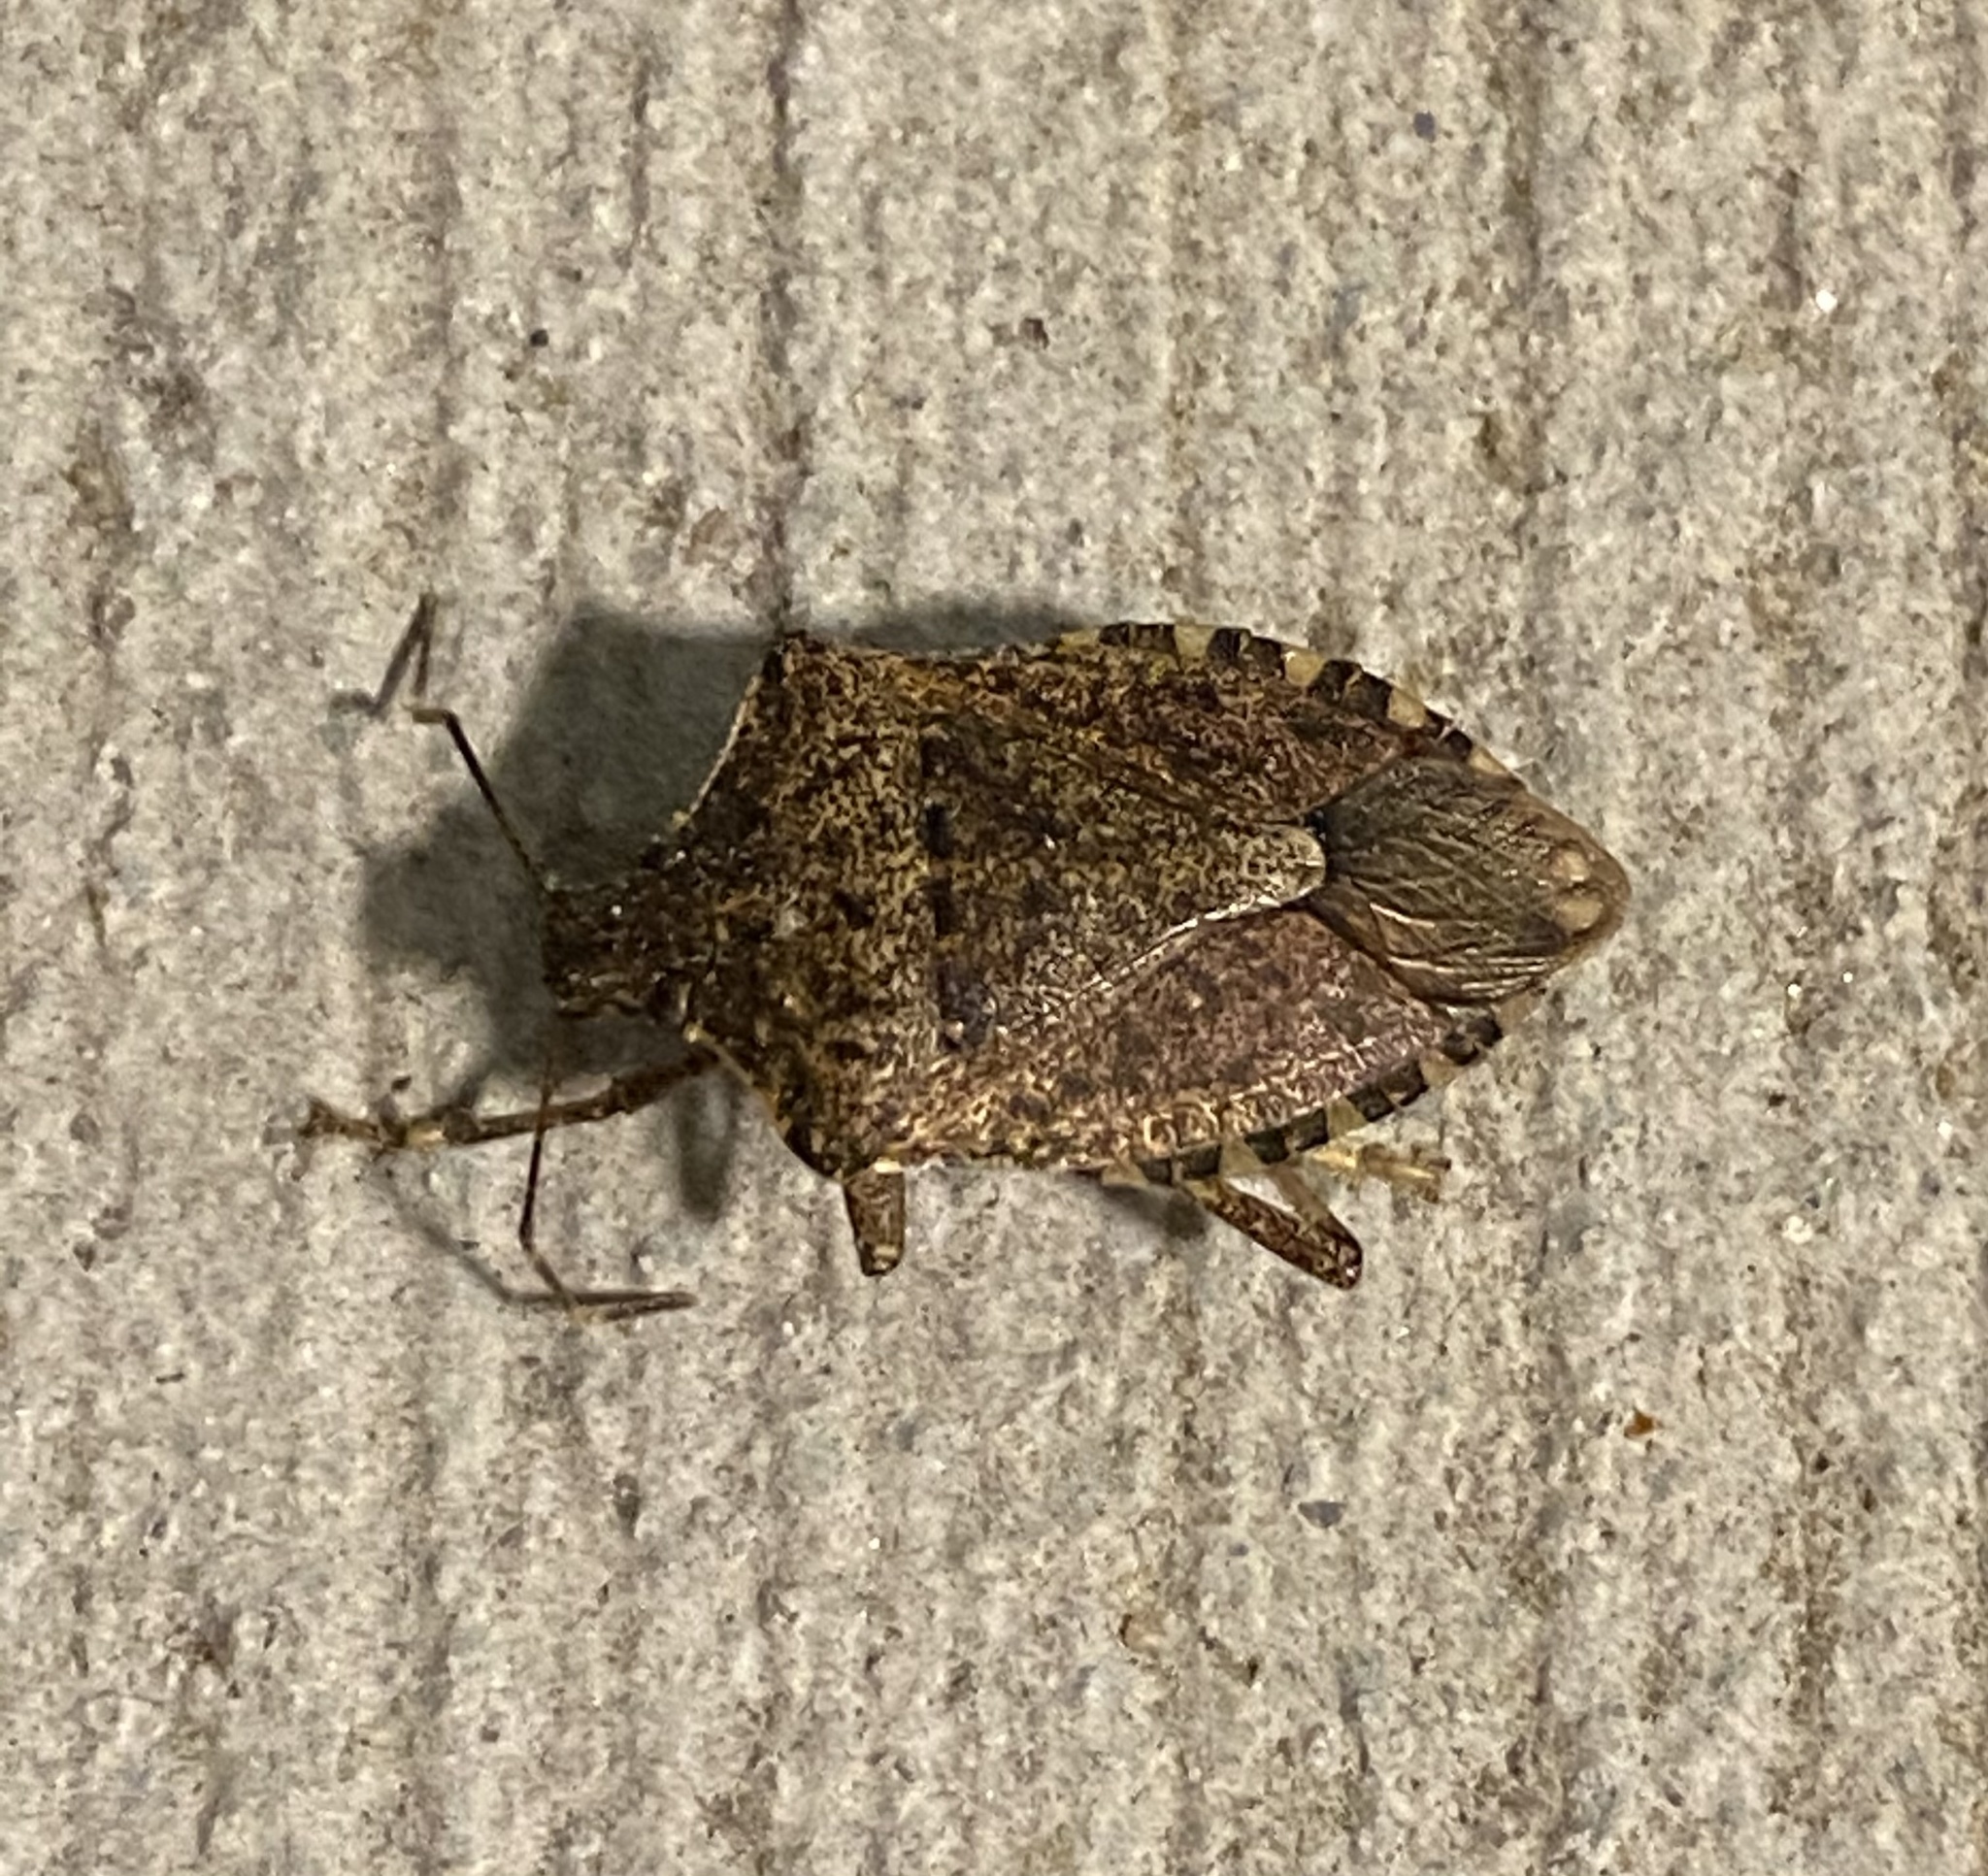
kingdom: Animalia
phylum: Arthropoda
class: Insecta
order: Hemiptera
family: Pentatomidae
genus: Halyomorpha
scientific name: Halyomorpha halys
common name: Brown marmorated stink bug
